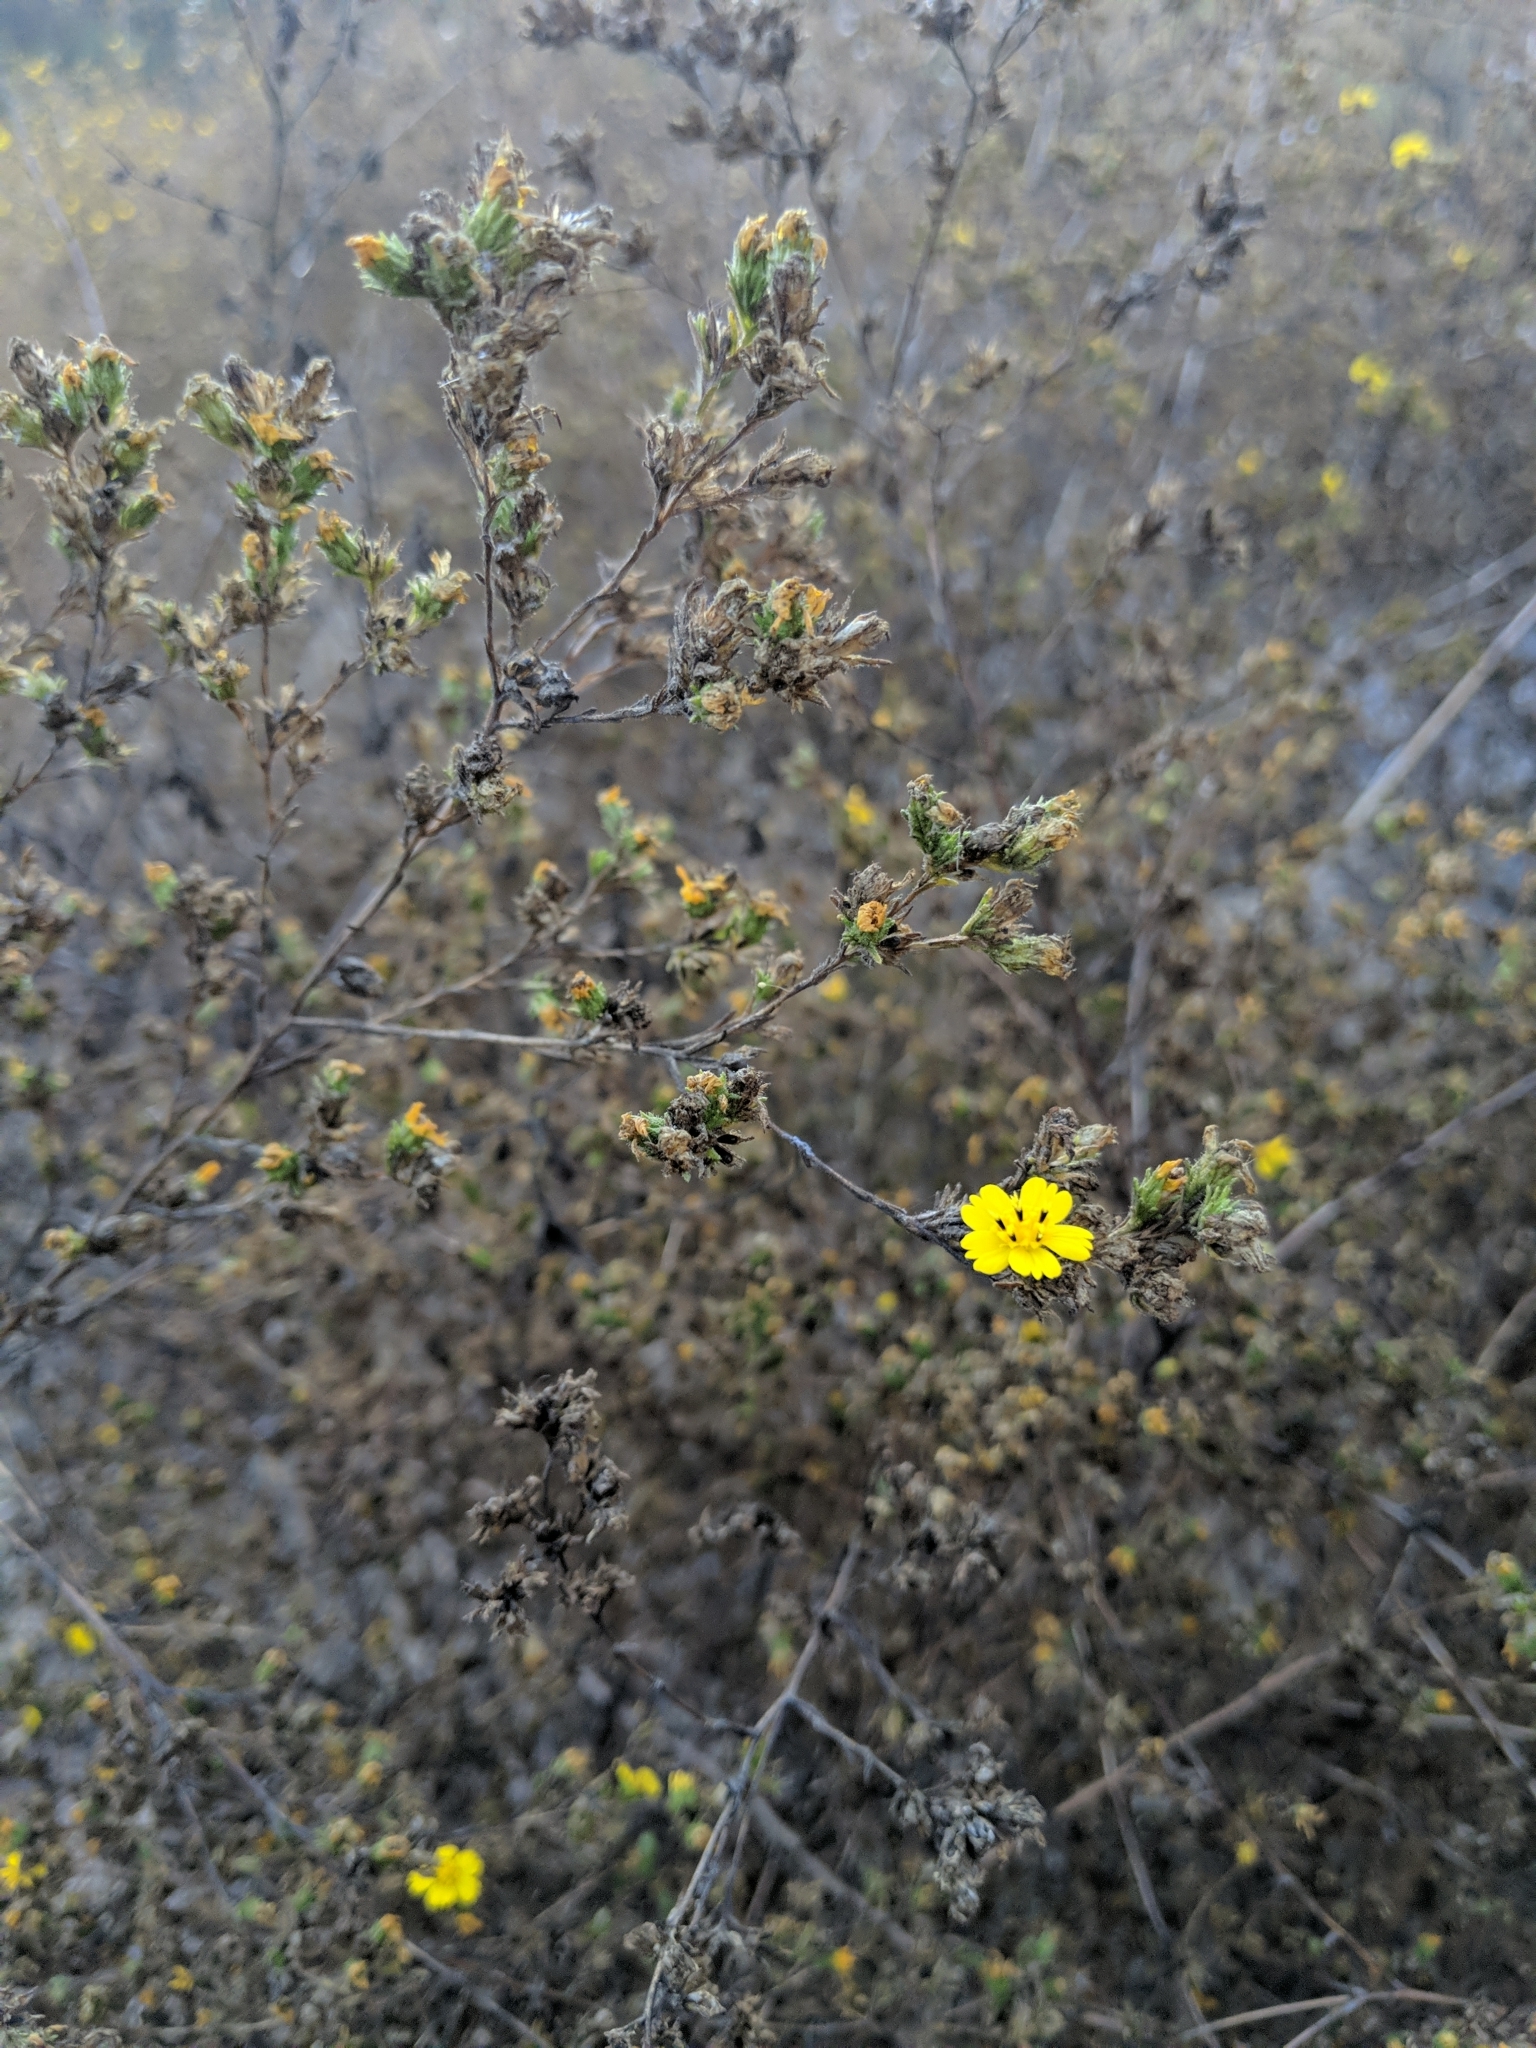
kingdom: Plantae
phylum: Tracheophyta
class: Magnoliopsida
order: Asterales
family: Asteraceae
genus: Deinandra
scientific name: Deinandra fasciculata
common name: Clustered tarweed
